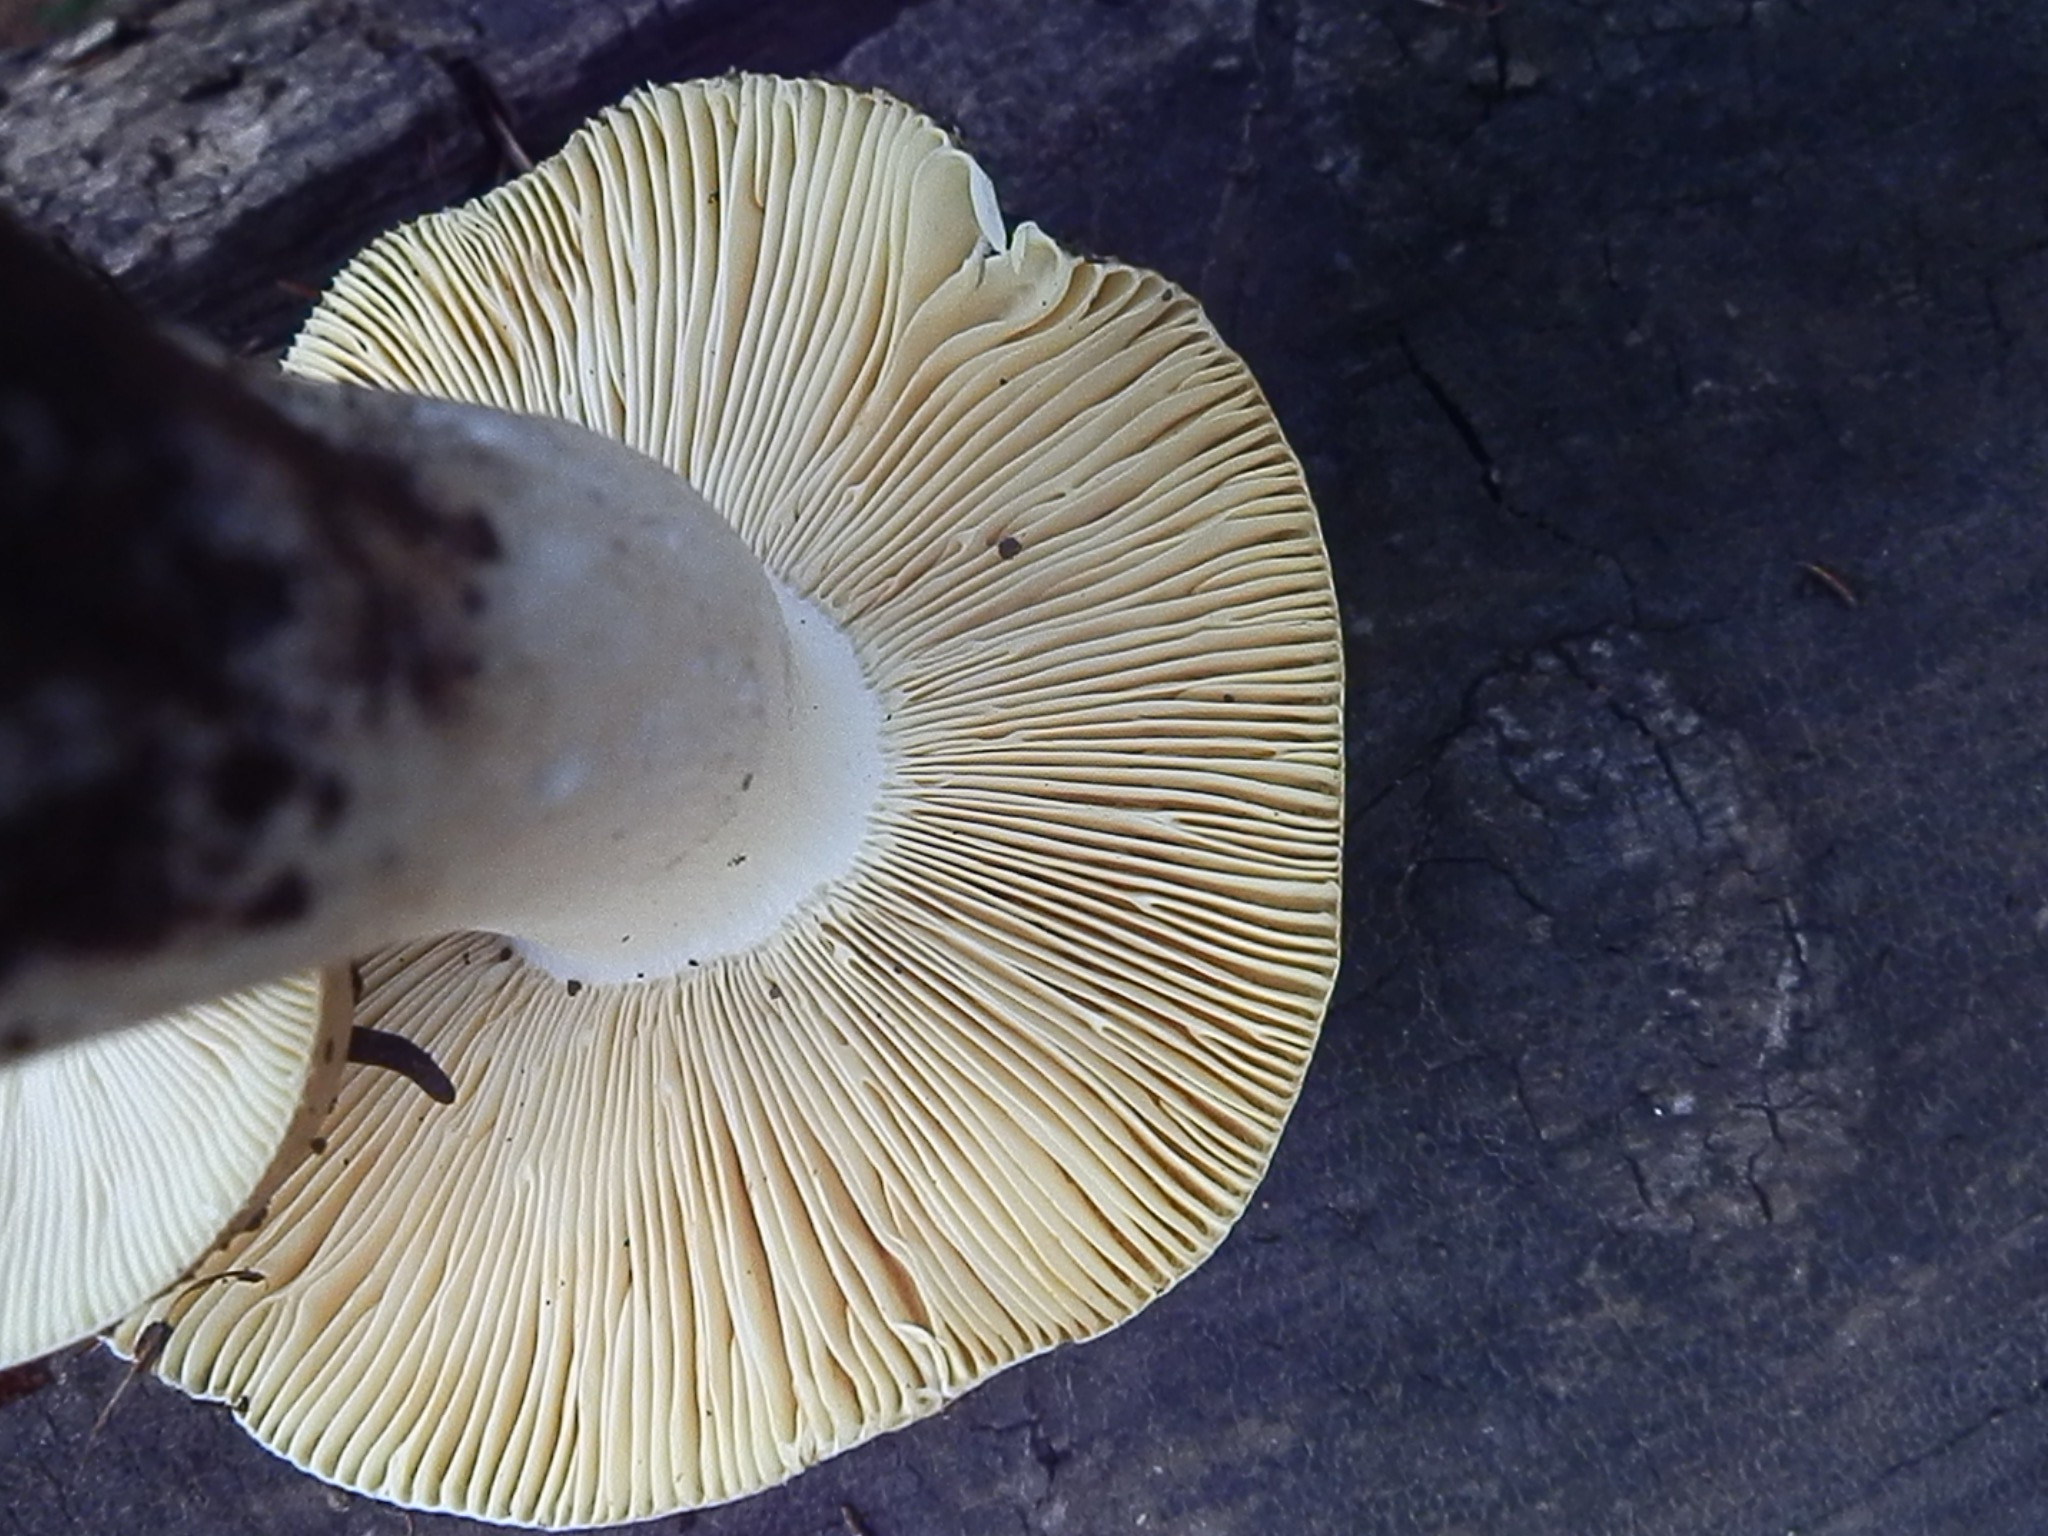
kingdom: Fungi
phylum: Basidiomycota
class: Agaricomycetes
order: Russulales
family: Russulaceae
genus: Russula
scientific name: Russula integra
